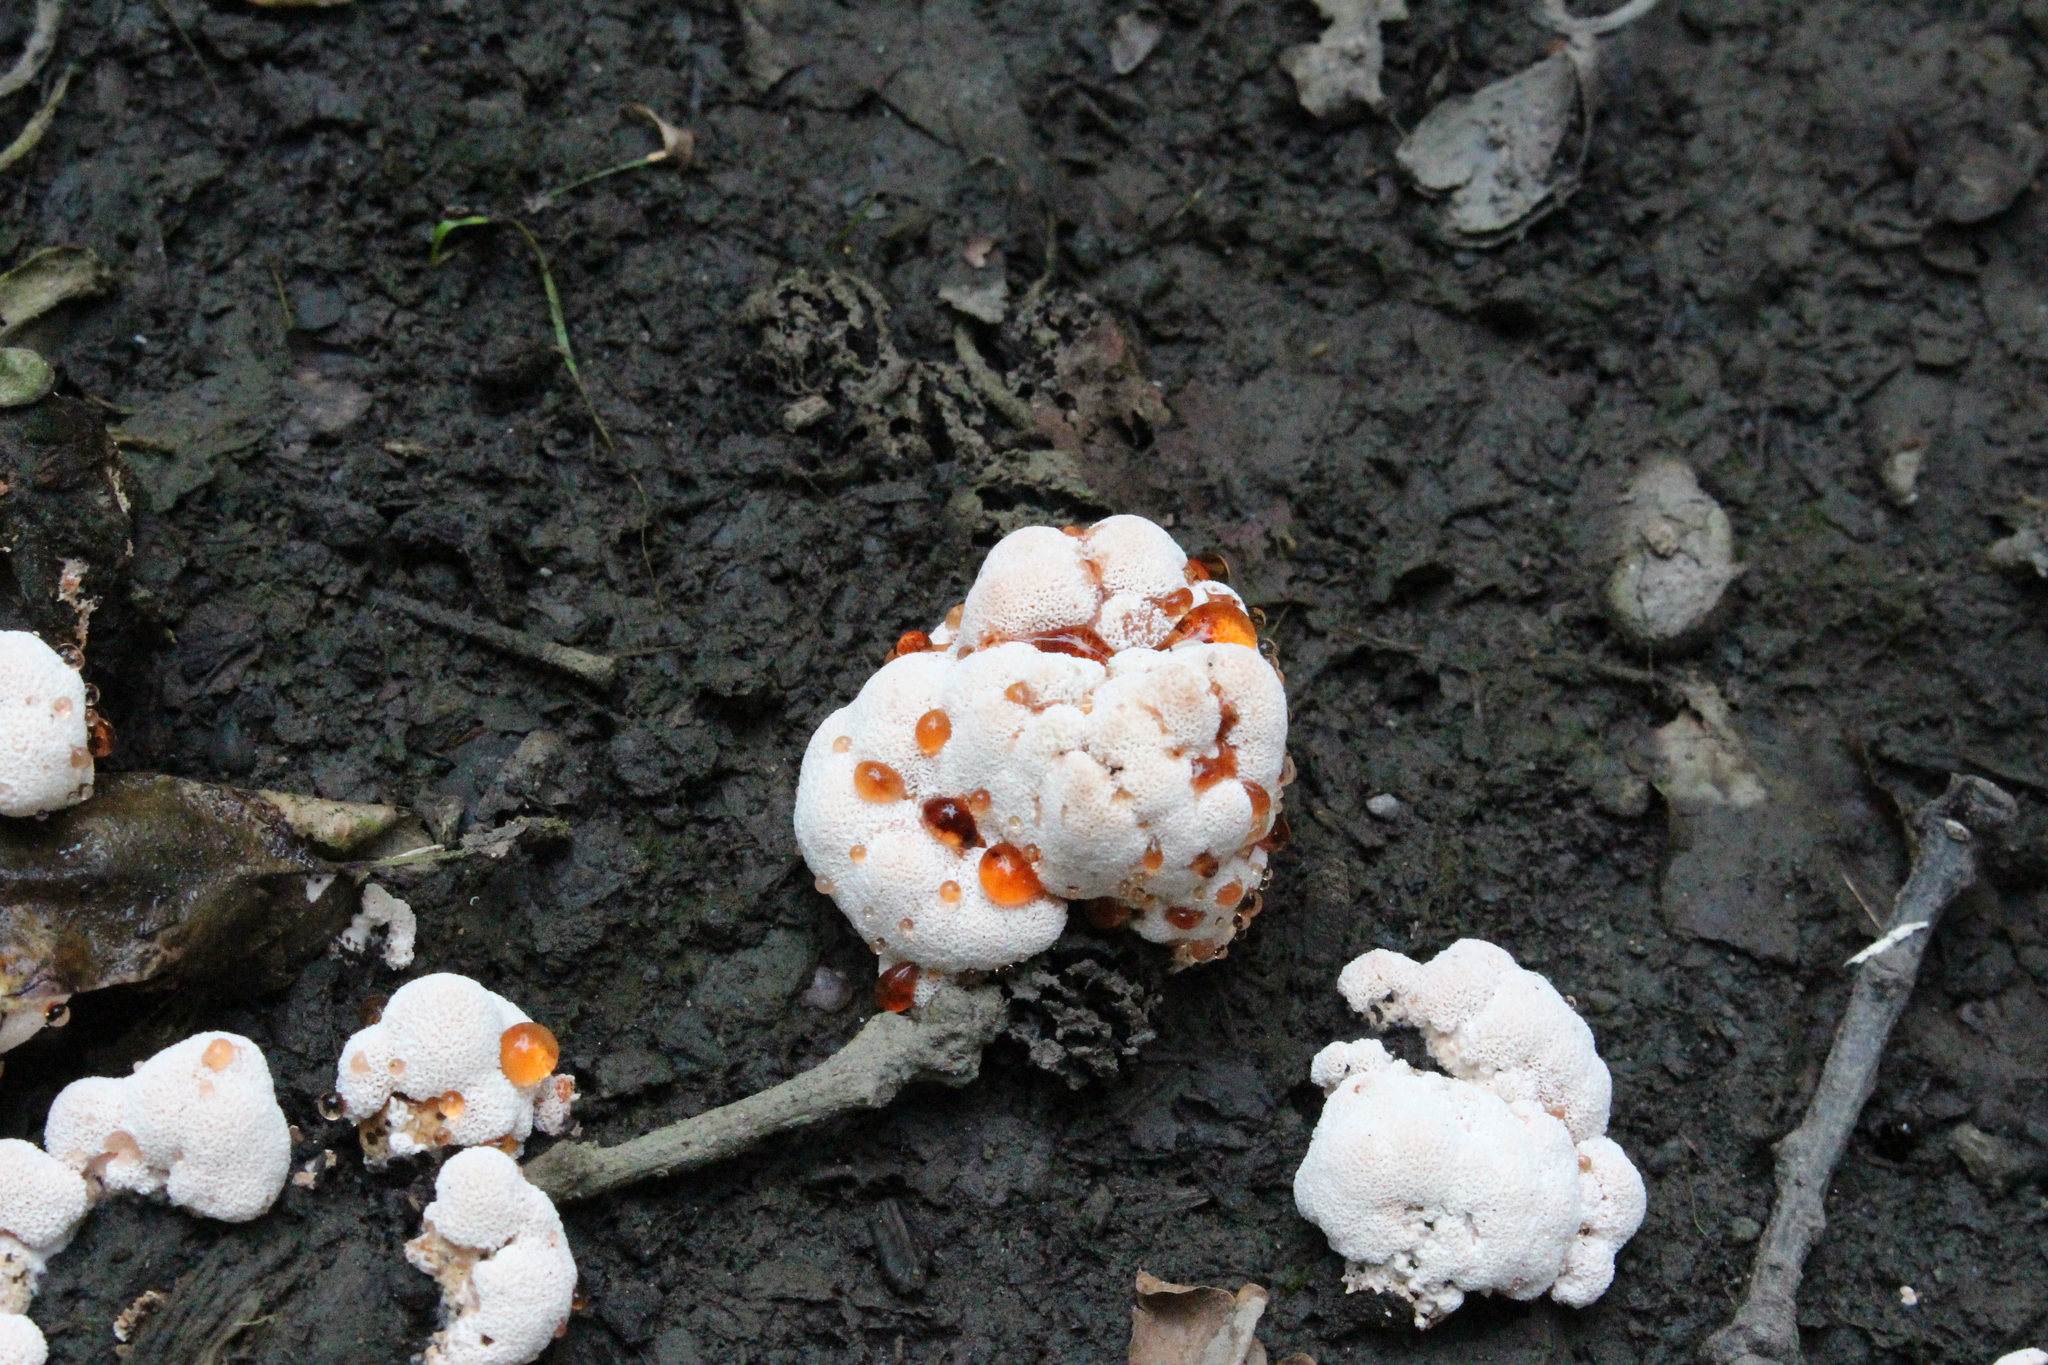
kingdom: Fungi
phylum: Basidiomycota
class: Agaricomycetes
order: Polyporales
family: Podoscyphaceae
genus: Abortiporus
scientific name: Abortiporus biennis
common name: Blushing rosette
